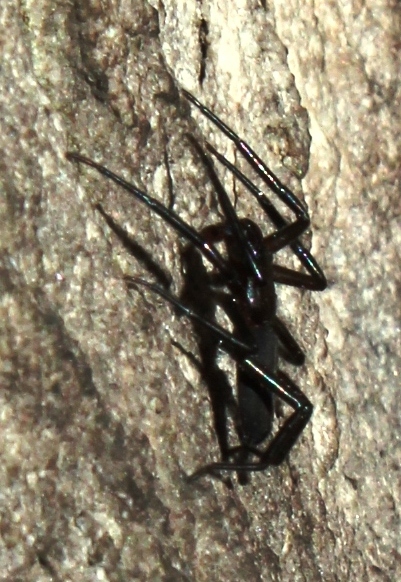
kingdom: Animalia
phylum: Arthropoda
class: Arachnida
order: Araneae
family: Trochanteriidae
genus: Platyoides
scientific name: Platyoides pirie
